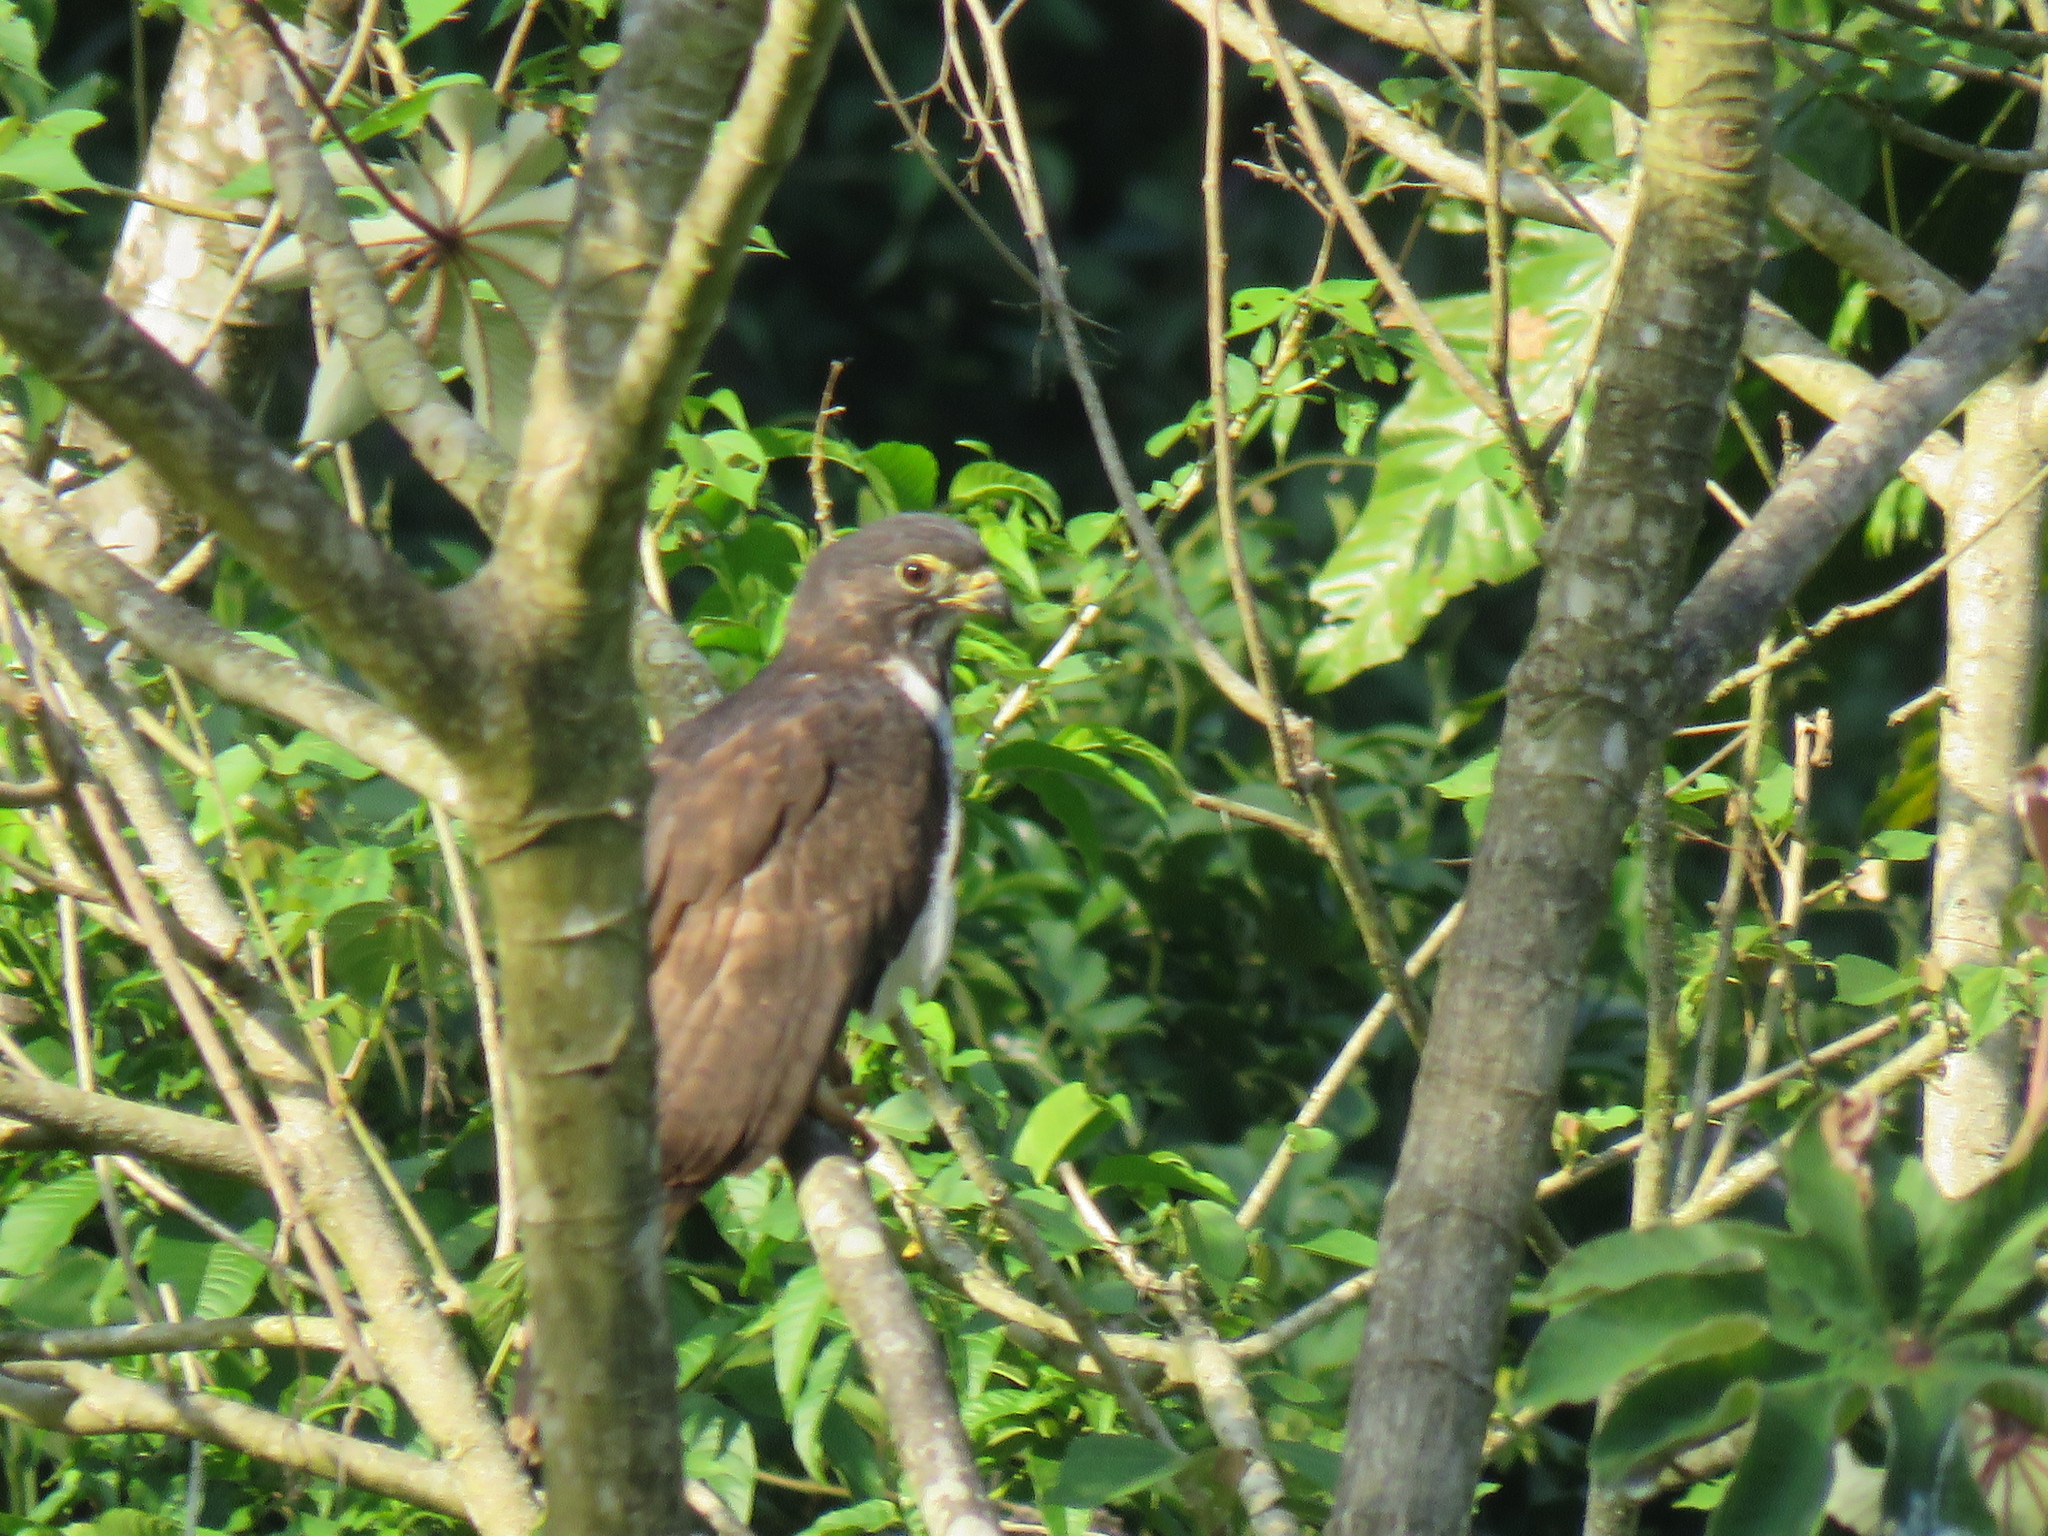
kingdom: Animalia
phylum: Chordata
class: Aves
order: Accipitriformes
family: Accipitridae
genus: Harpagus
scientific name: Harpagus bidentatus
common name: Double-toothed kite
